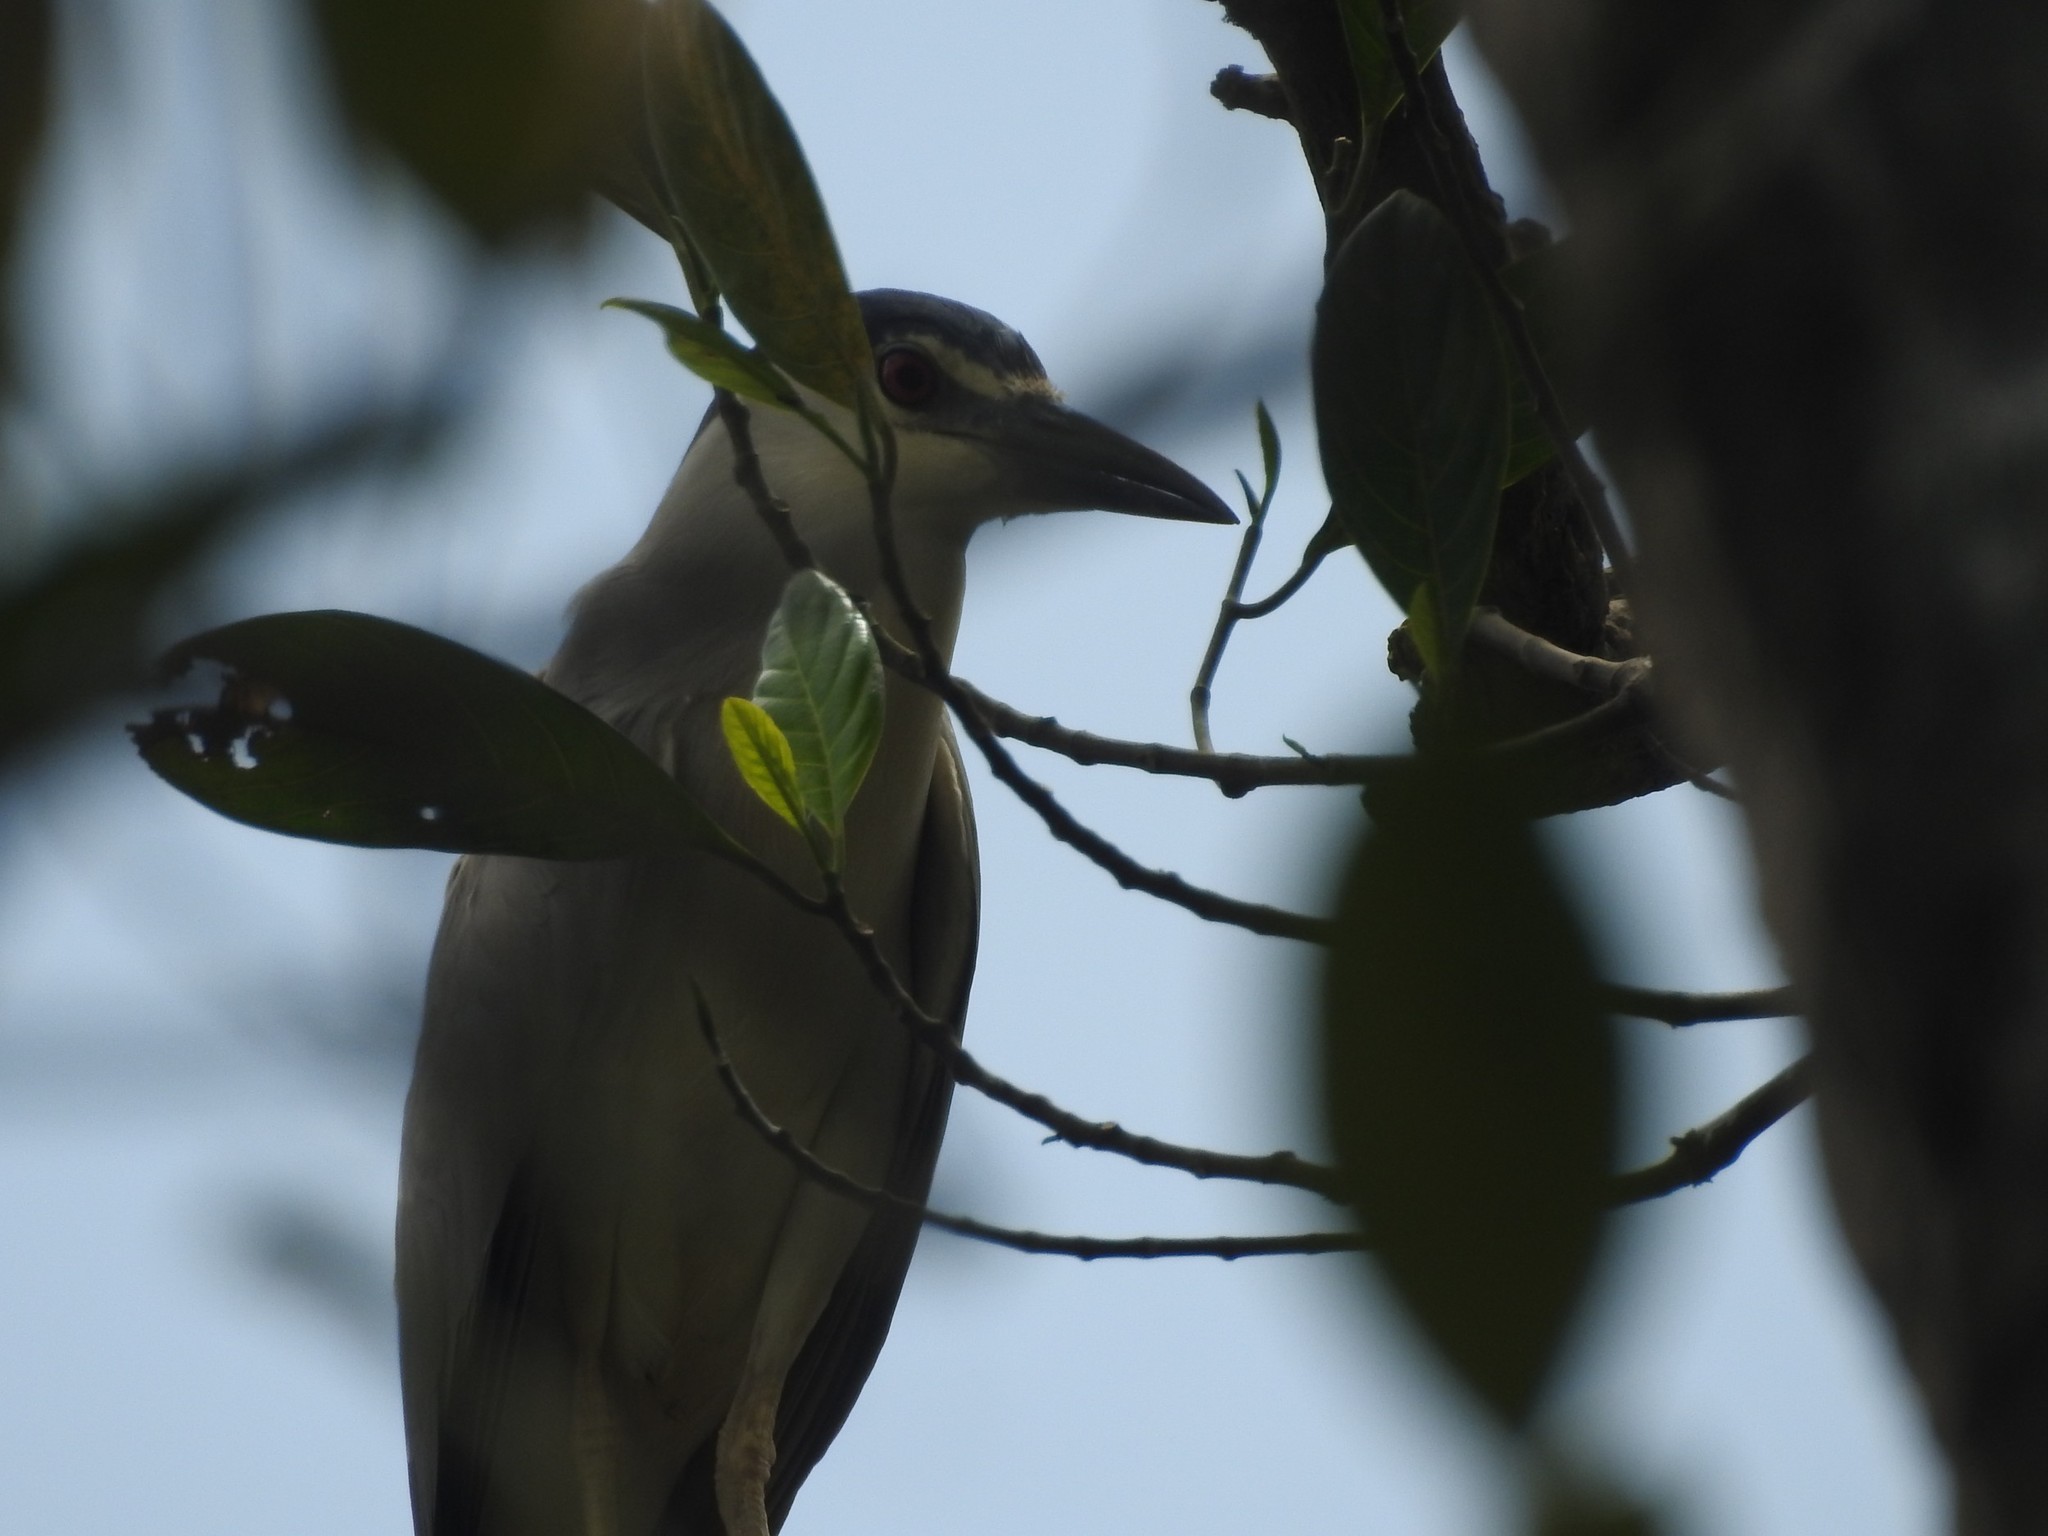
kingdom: Animalia
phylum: Chordata
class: Aves
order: Pelecaniformes
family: Ardeidae
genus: Nycticorax
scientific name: Nycticorax nycticorax
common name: Black-crowned night heron
